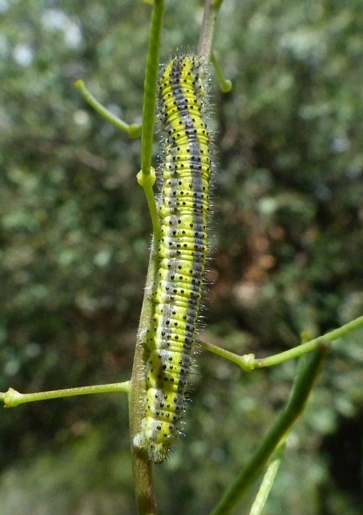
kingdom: Animalia
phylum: Arthropoda
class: Insecta
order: Lepidoptera
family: Pieridae
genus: Euchloe
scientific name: Euchloe crameri
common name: Western dappled white
